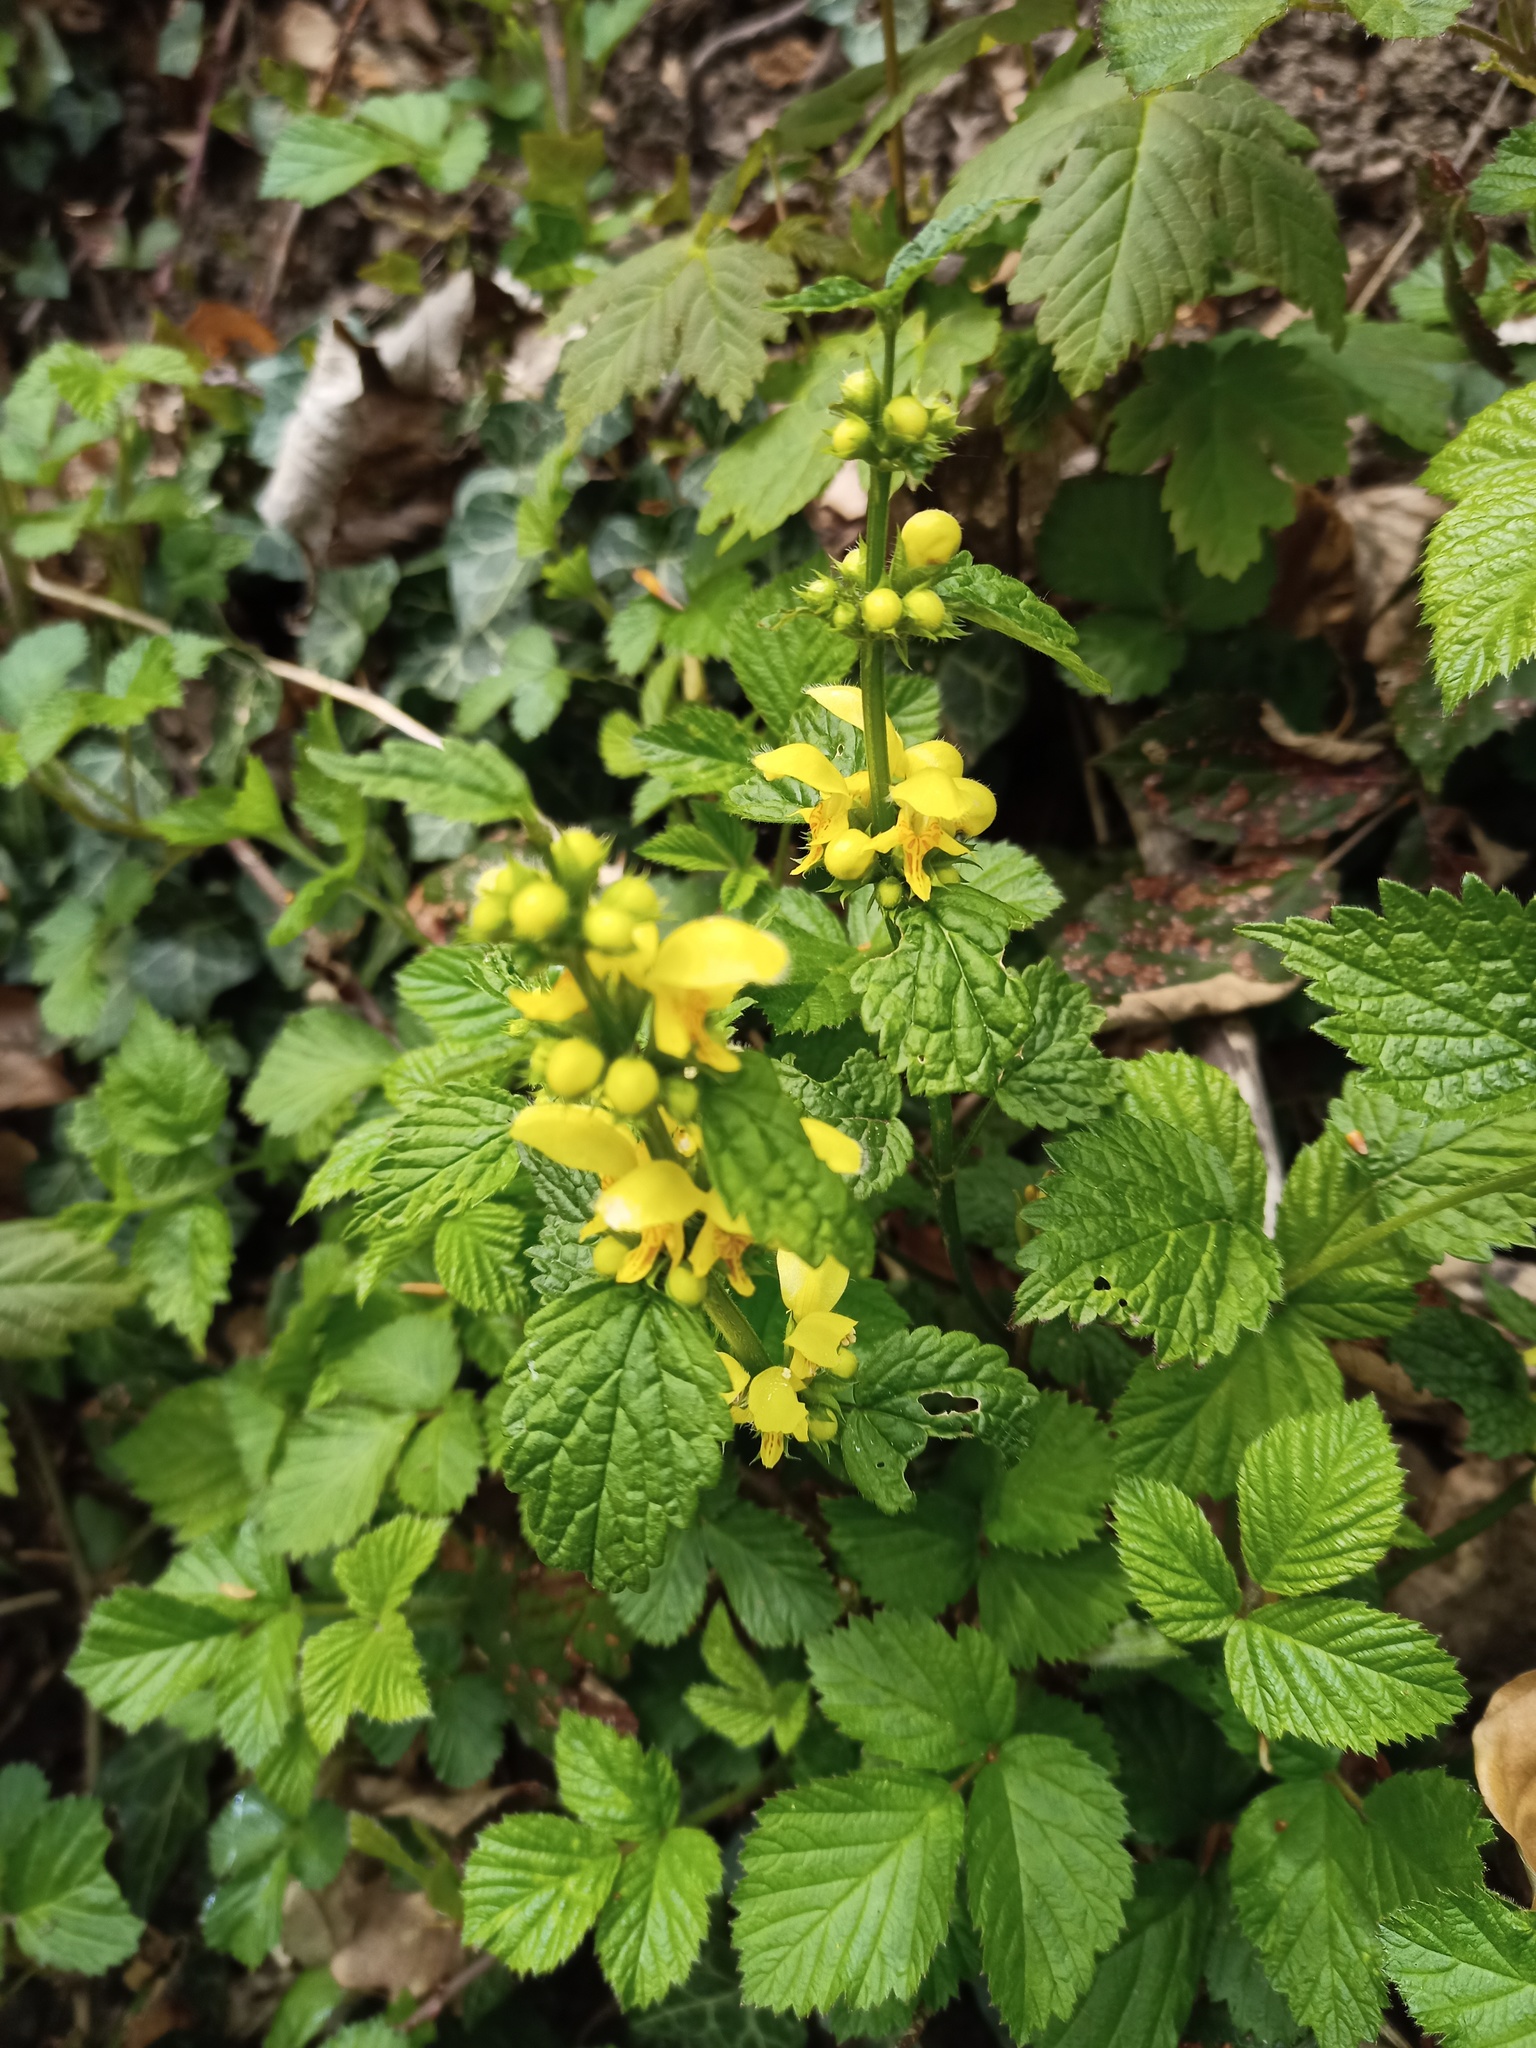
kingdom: Plantae
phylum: Tracheophyta
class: Magnoliopsida
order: Lamiales
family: Lamiaceae
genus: Lamium
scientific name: Lamium galeobdolon
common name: Yellow archangel
